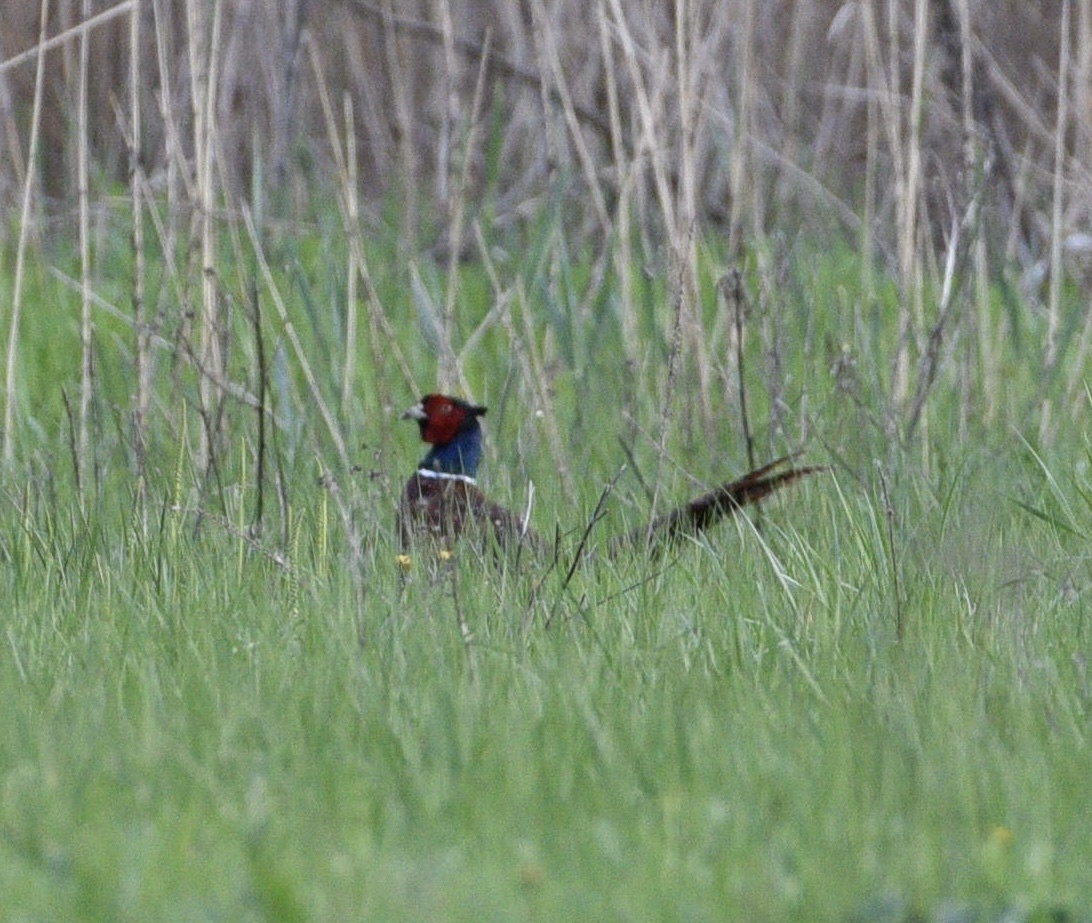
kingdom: Animalia
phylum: Chordata
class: Aves
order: Galliformes
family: Phasianidae
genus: Phasianus
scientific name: Phasianus colchicus
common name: Common pheasant
